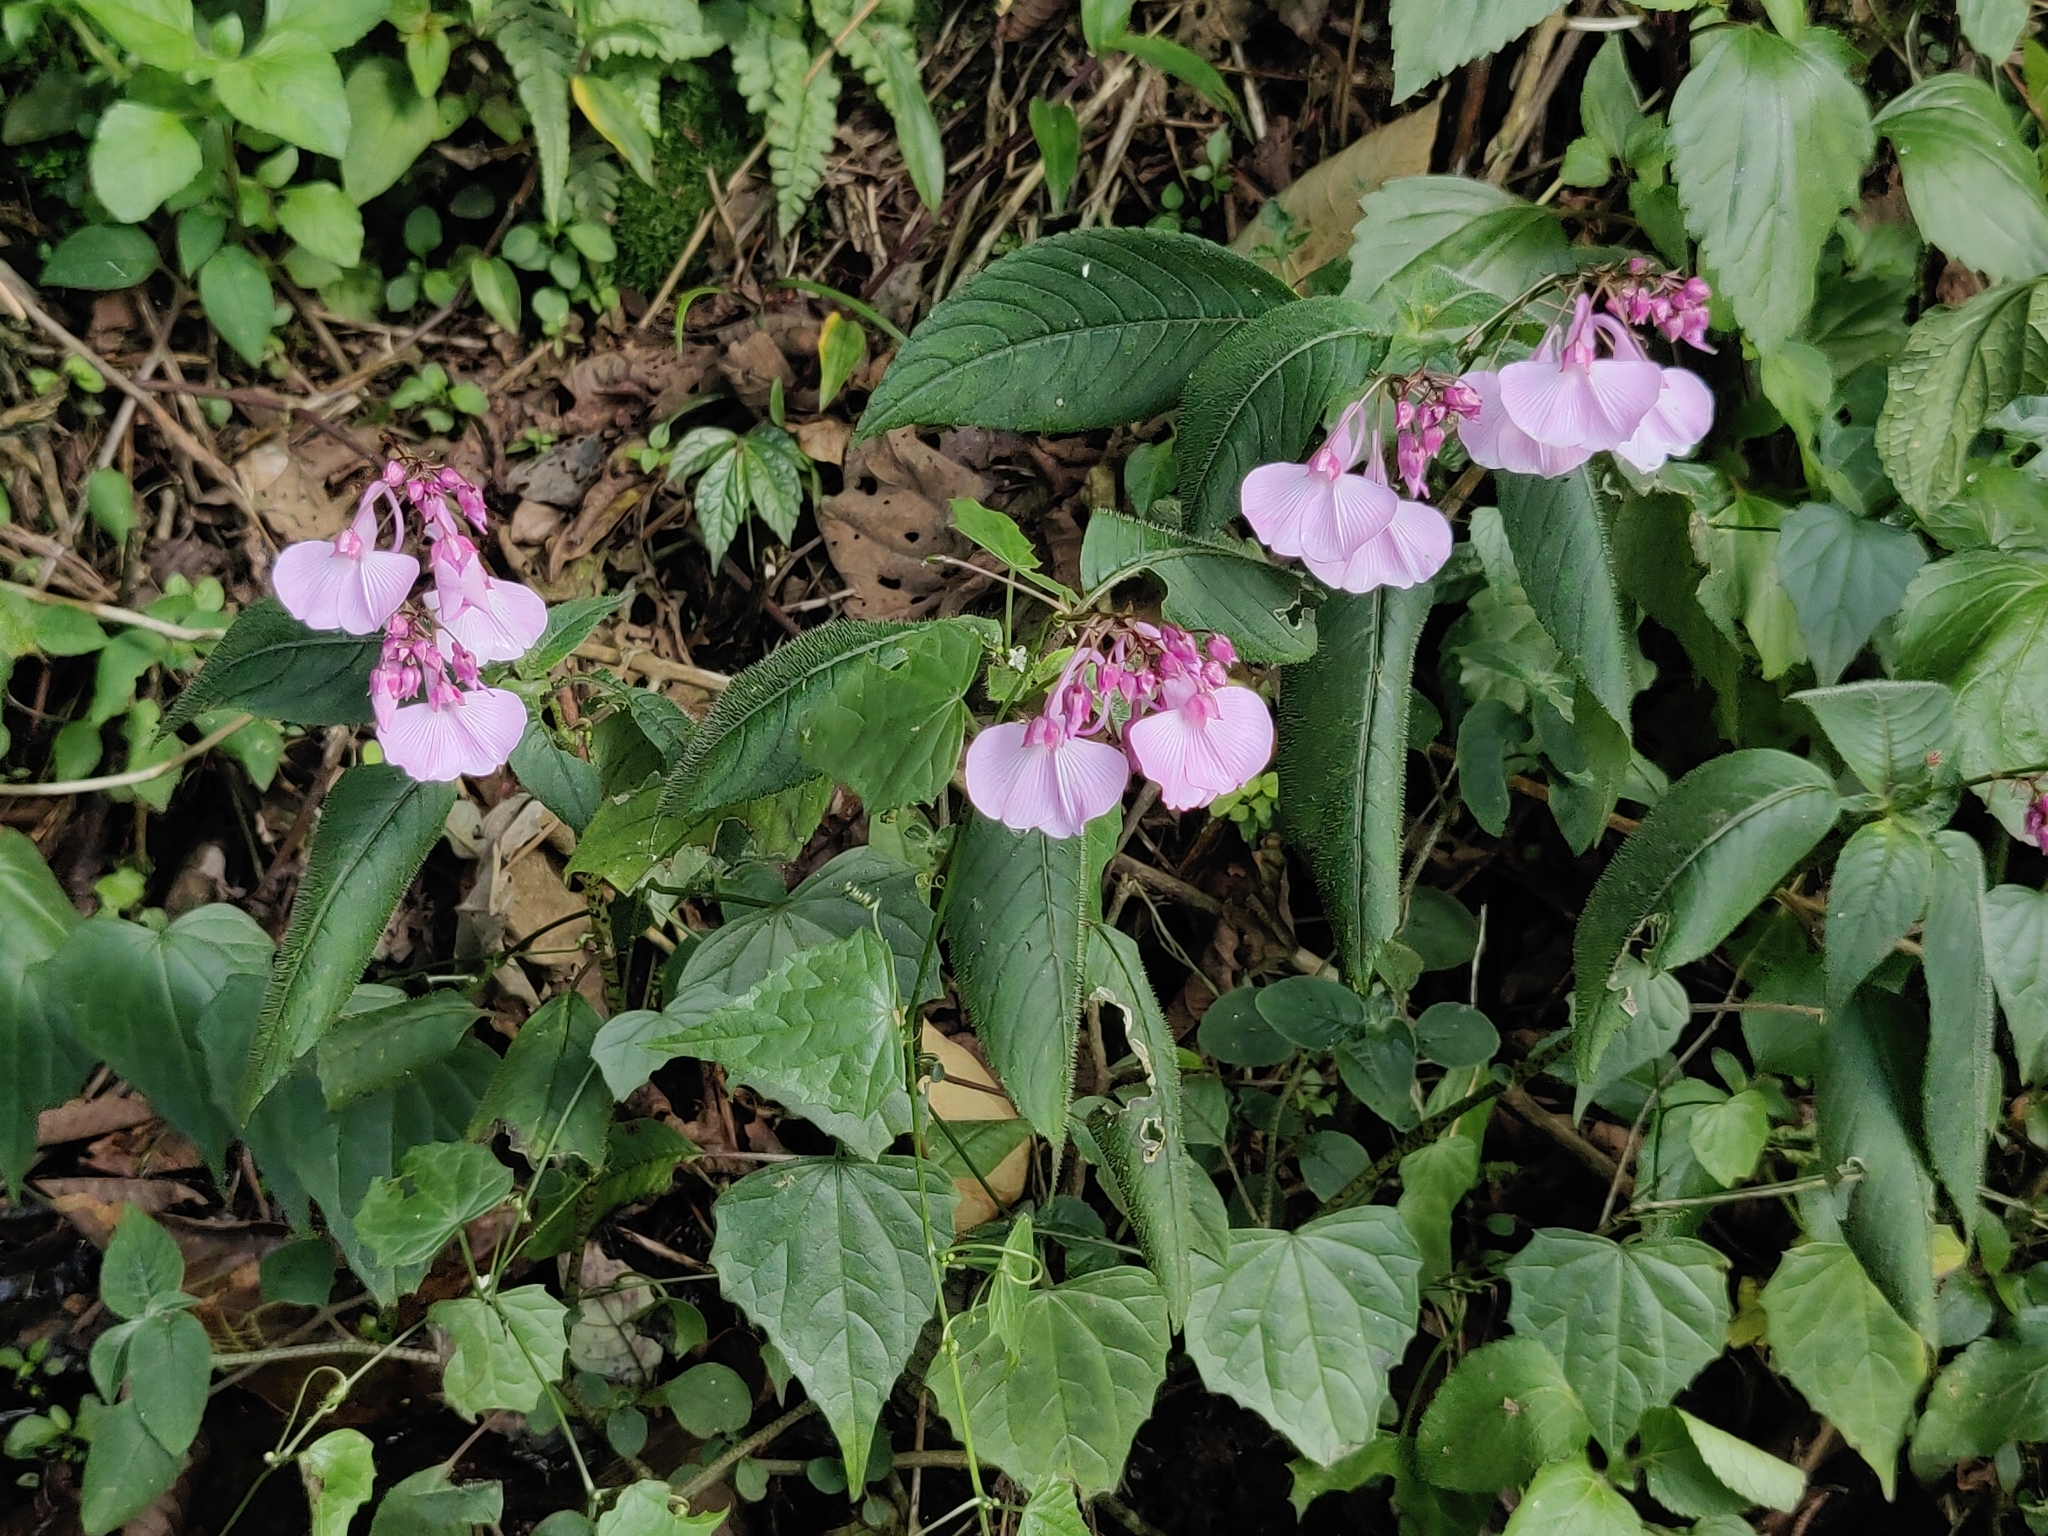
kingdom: Plantae
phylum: Tracheophyta
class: Magnoliopsida
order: Ericales
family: Balsaminaceae
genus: Impatiens
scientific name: Impatiens maculata
